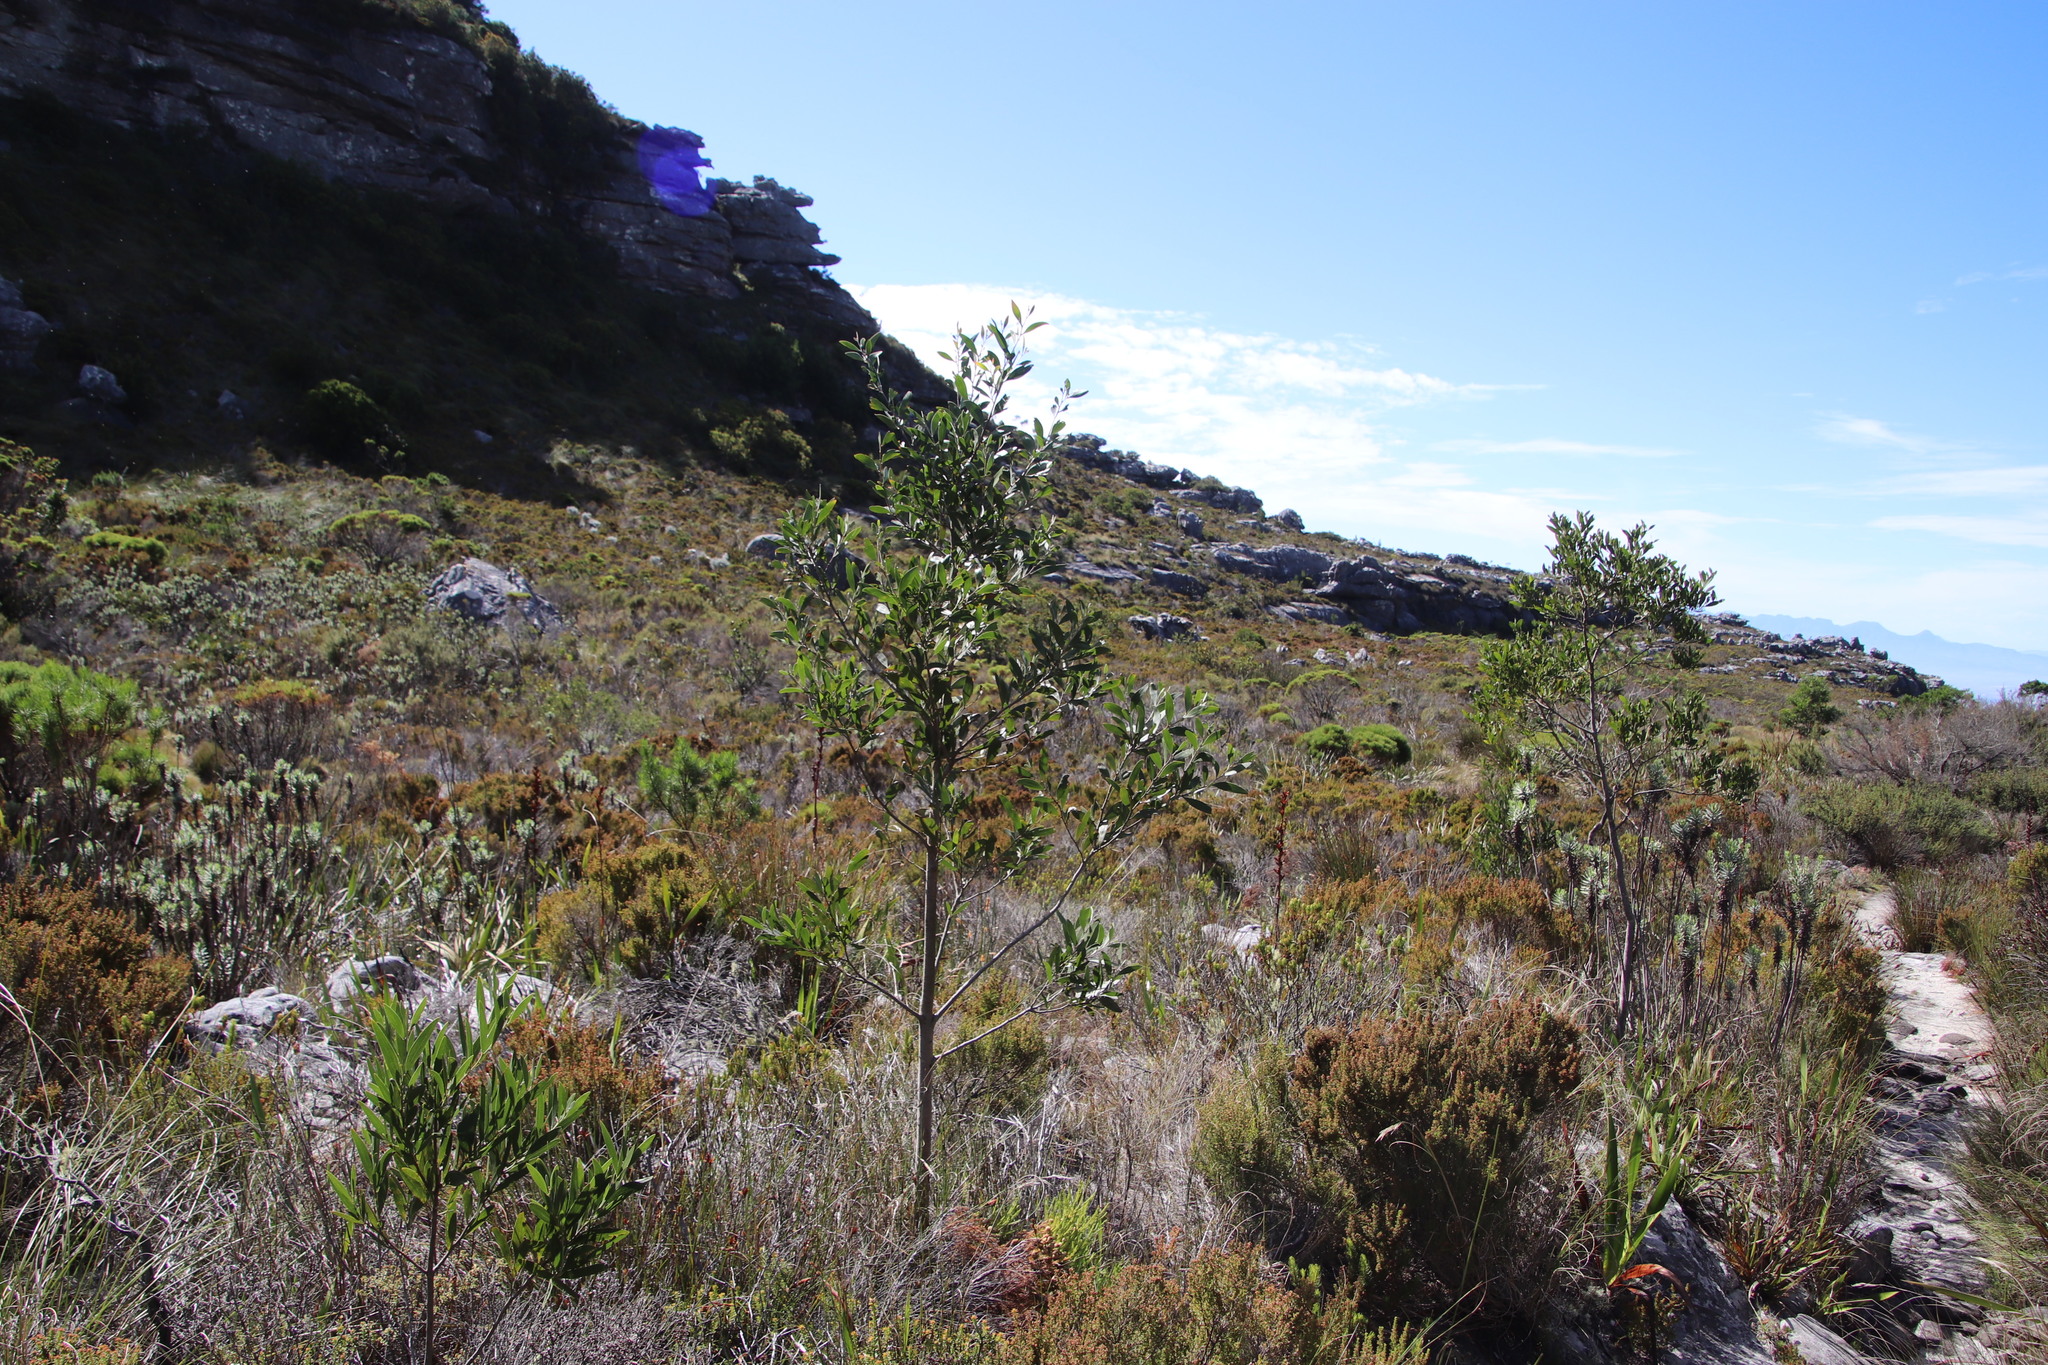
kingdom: Plantae
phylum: Tracheophyta
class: Magnoliopsida
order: Fabales
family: Fabaceae
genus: Acacia
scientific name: Acacia melanoxylon
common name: Blackwood
